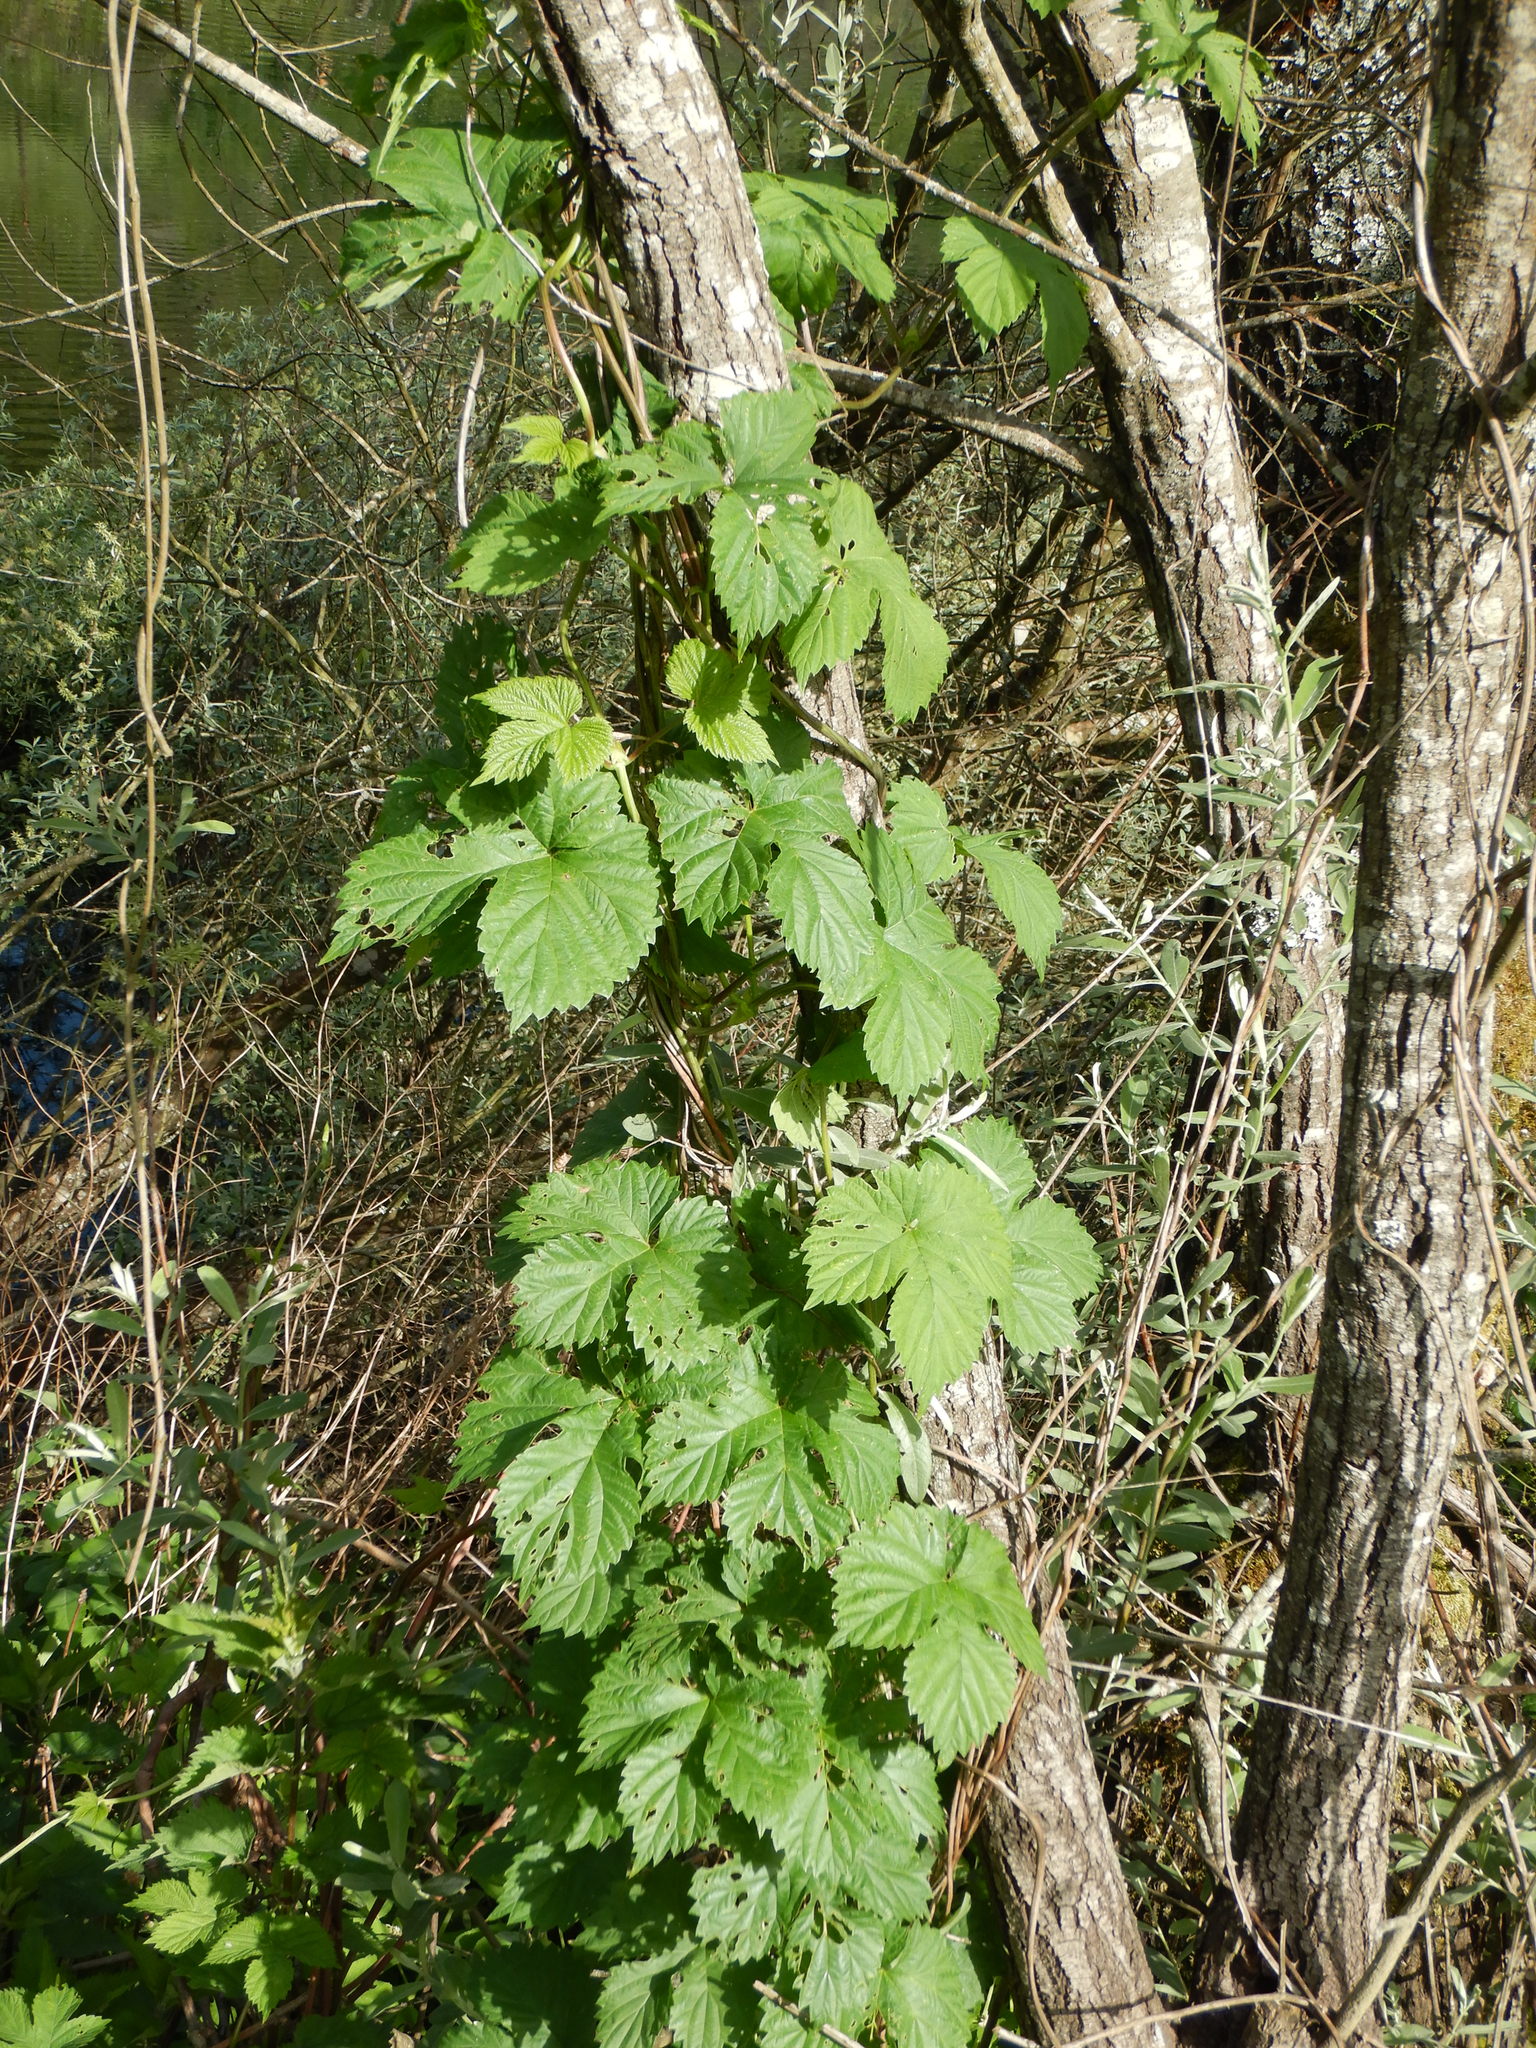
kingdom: Plantae
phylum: Tracheophyta
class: Magnoliopsida
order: Rosales
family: Cannabaceae
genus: Humulus
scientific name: Humulus lupulus
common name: Hop
